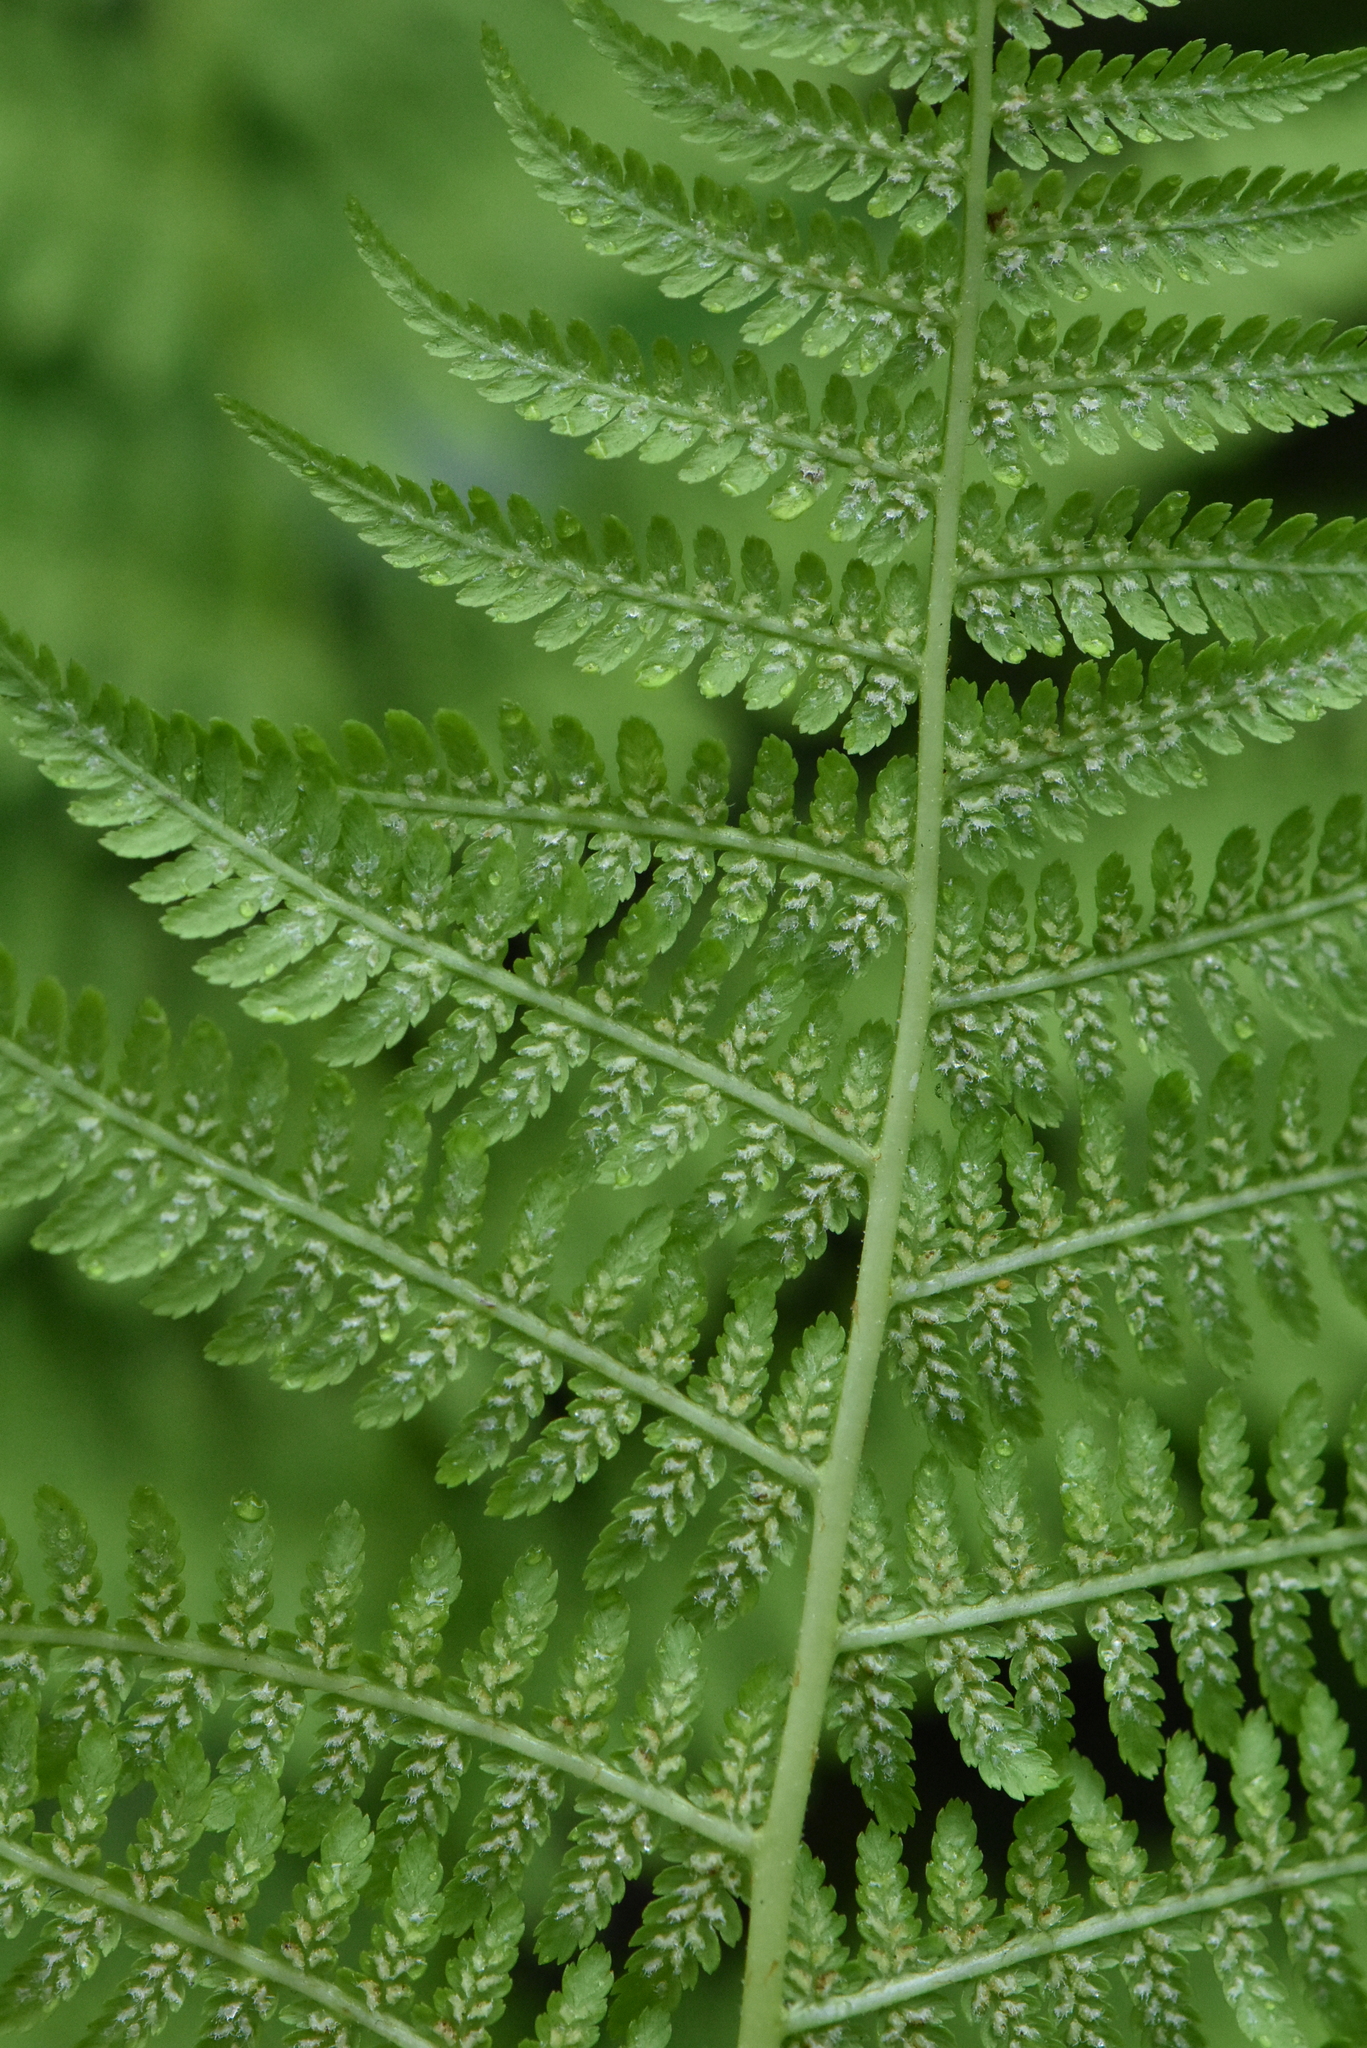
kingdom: Plantae
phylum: Tracheophyta
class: Polypodiopsida
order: Polypodiales
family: Athyriaceae
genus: Athyrium
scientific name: Athyrium filix-femina
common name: Lady fern
